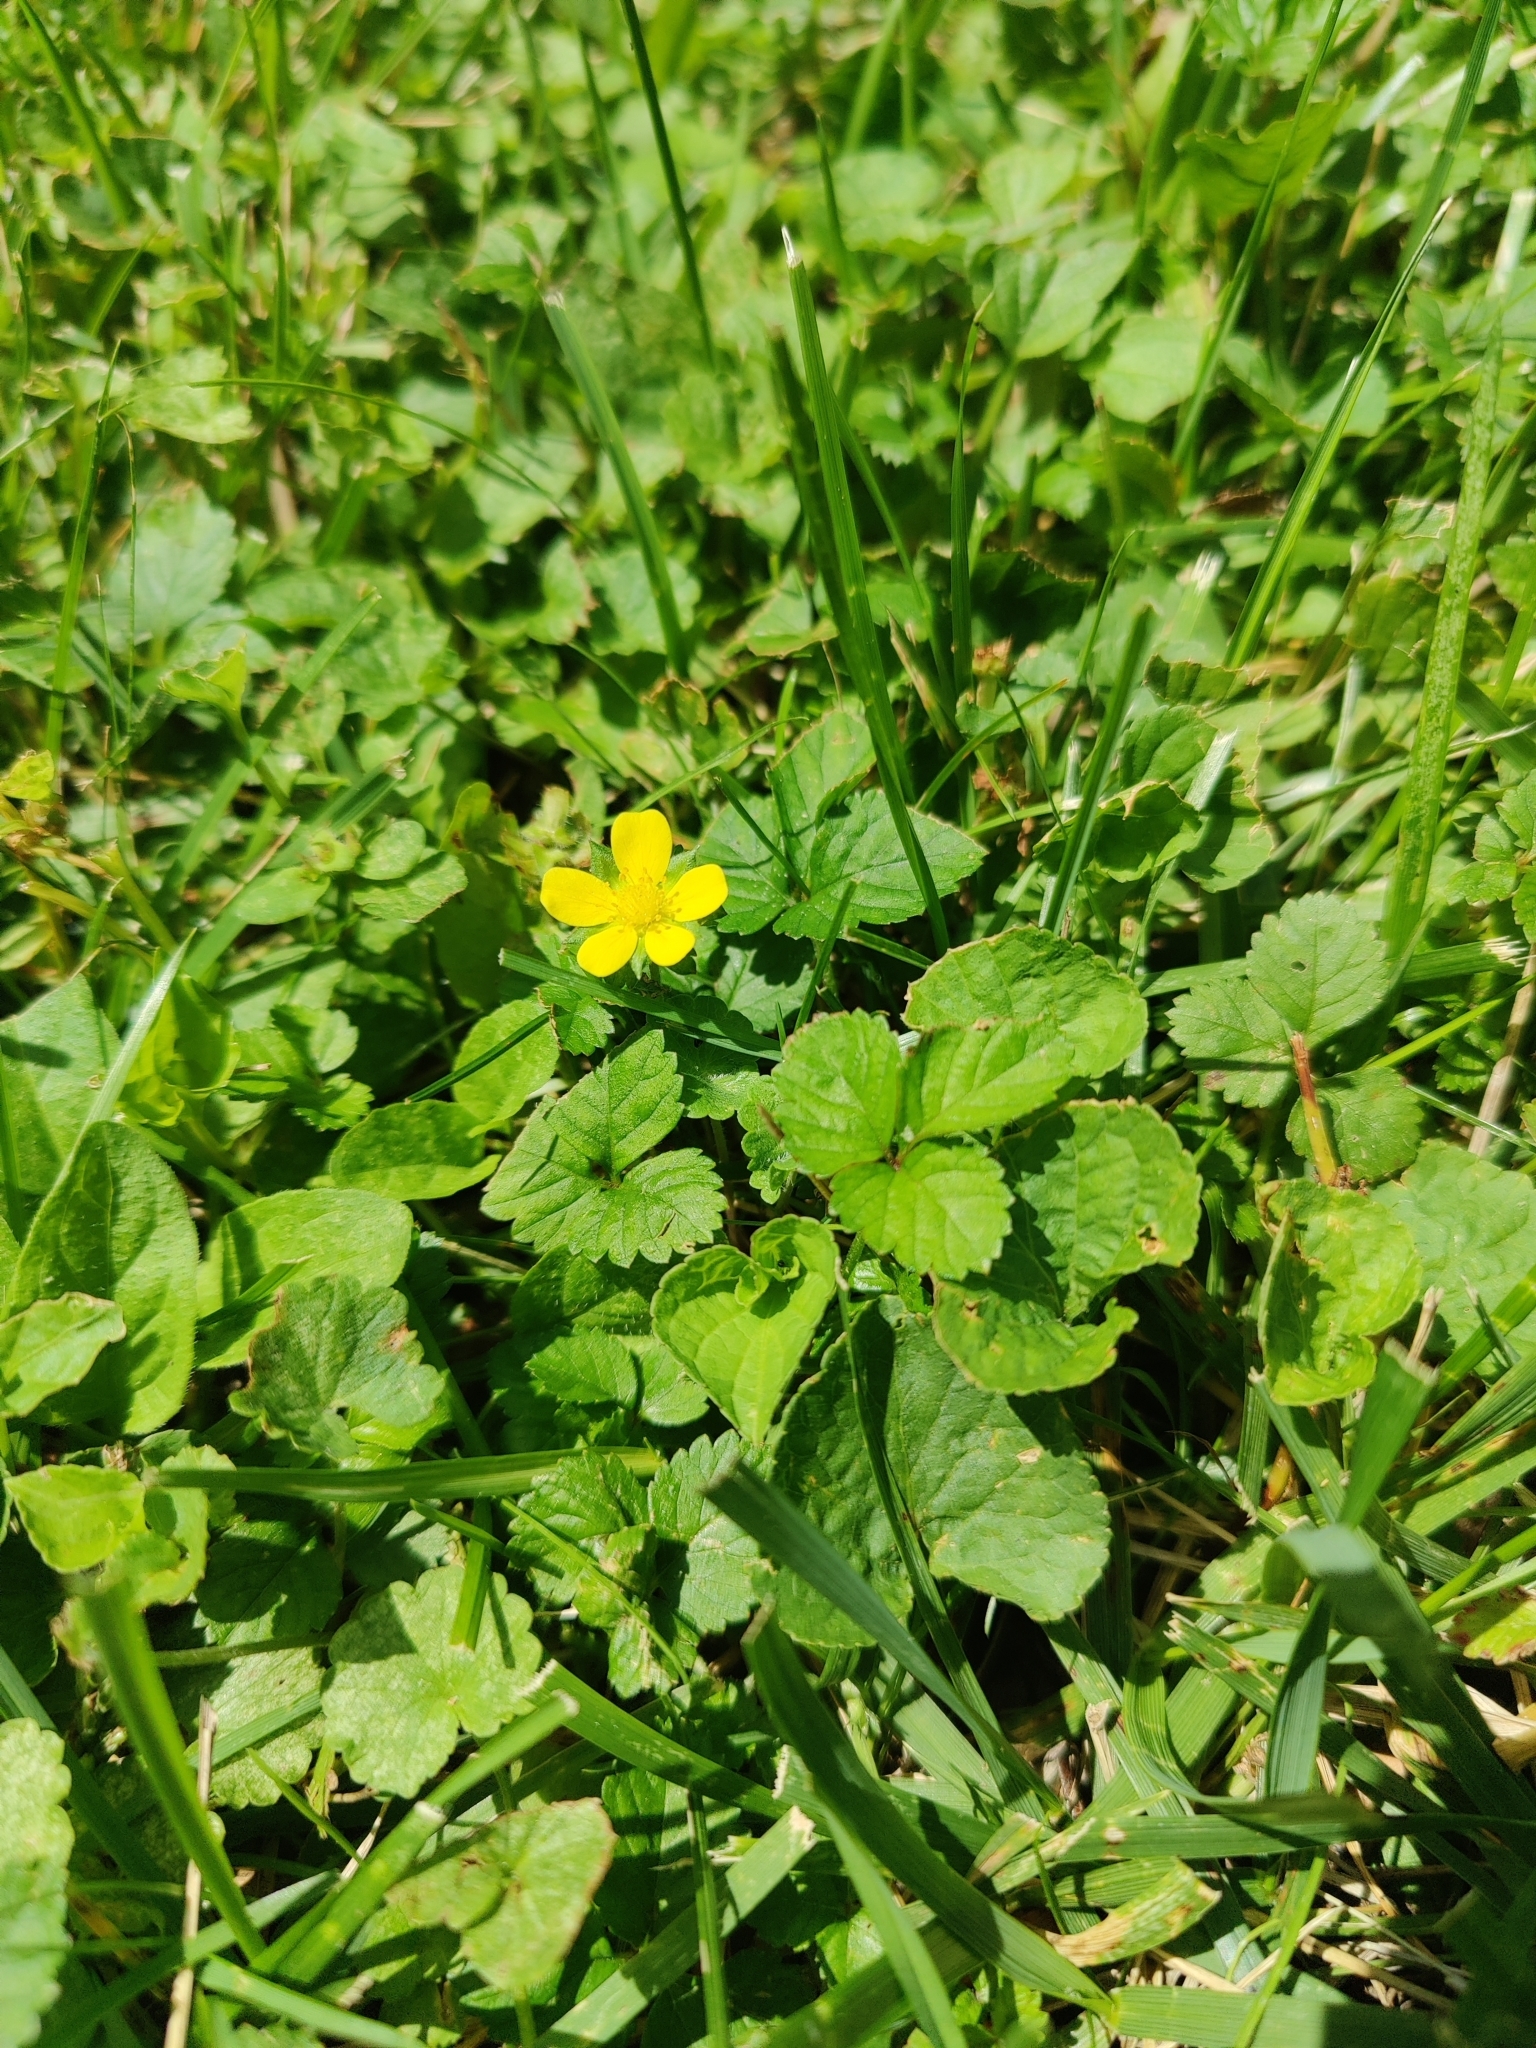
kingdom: Plantae
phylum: Tracheophyta
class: Magnoliopsida
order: Oxalidales
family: Oxalidaceae
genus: Oxalis
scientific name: Oxalis corniculata
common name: Procumbent yellow-sorrel
